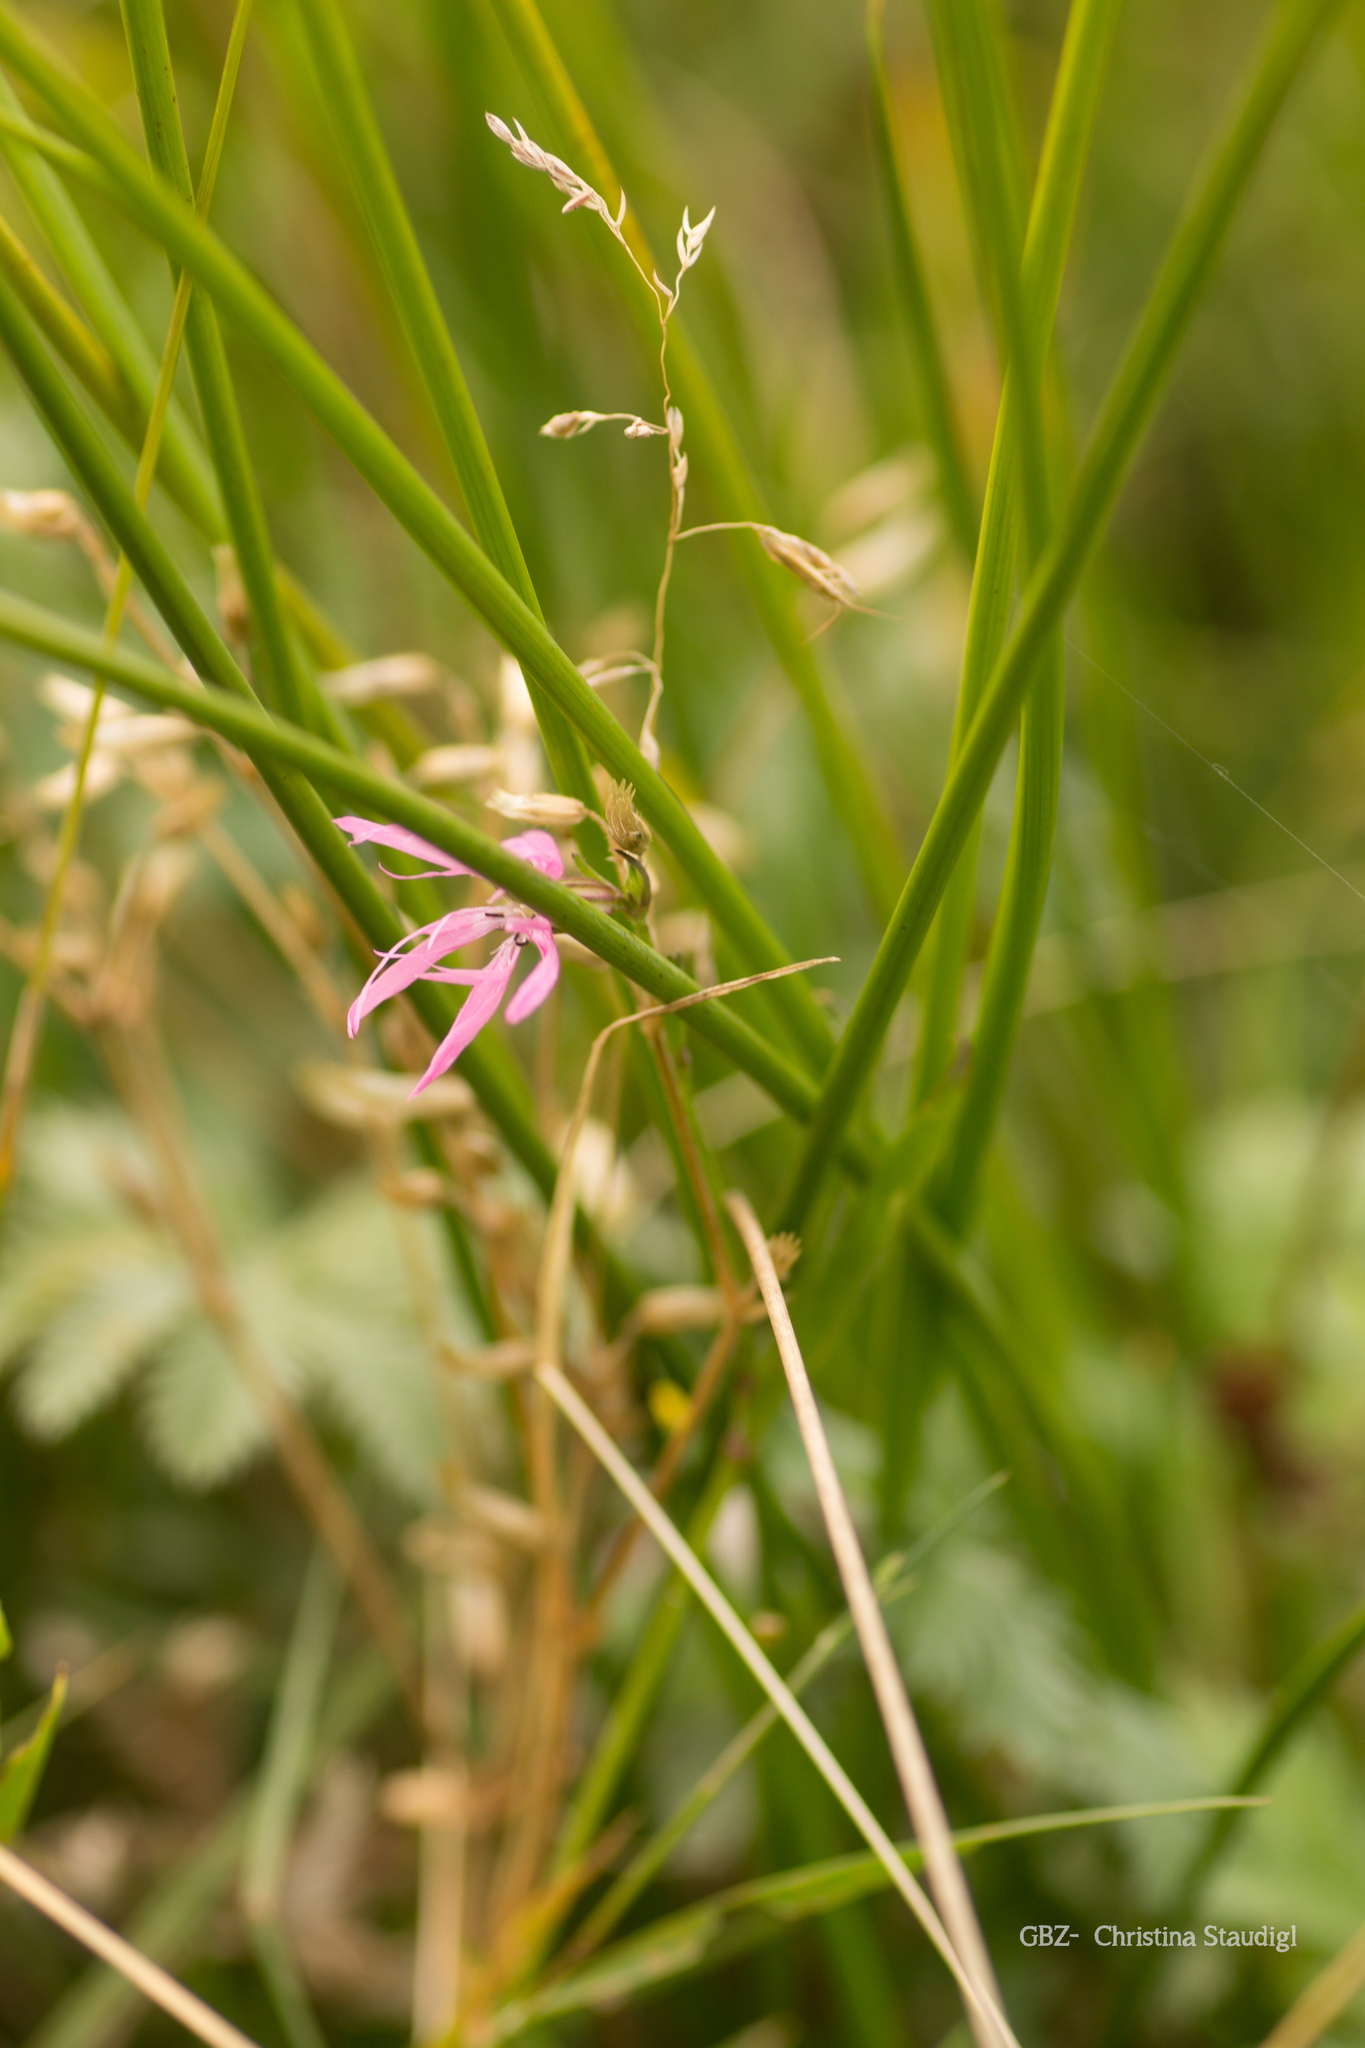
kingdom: Plantae
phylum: Tracheophyta
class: Magnoliopsida
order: Caryophyllales
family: Caryophyllaceae
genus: Silene
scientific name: Silene flos-cuculi
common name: Ragged-robin
